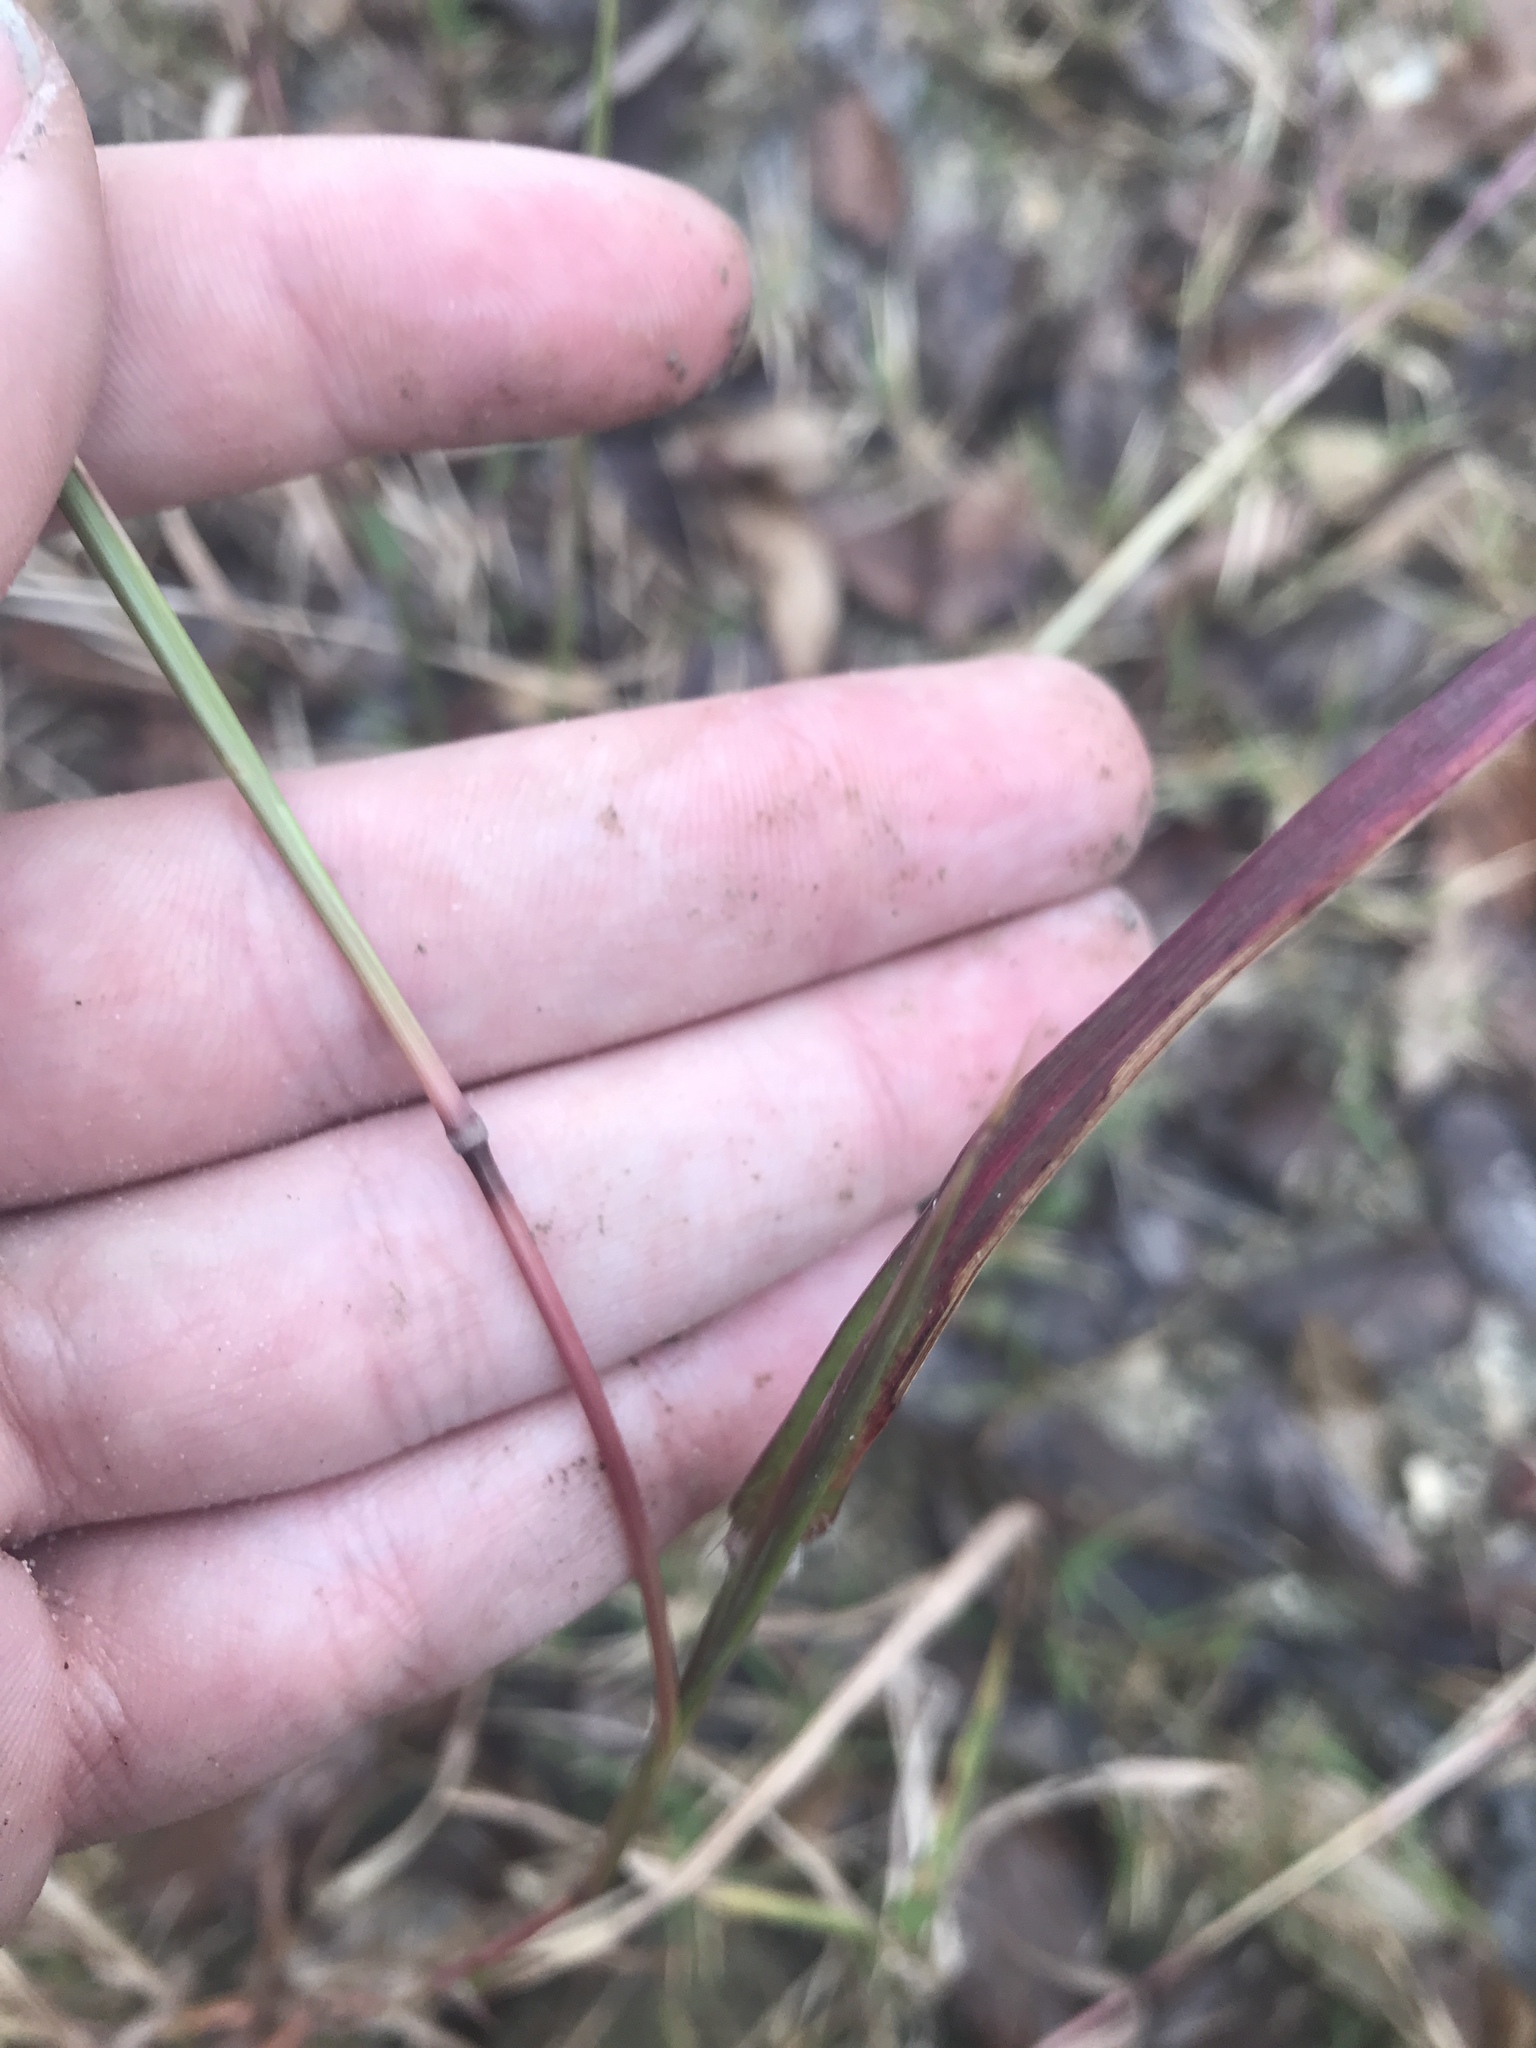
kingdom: Plantae
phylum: Tracheophyta
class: Liliopsida
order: Poales
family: Poaceae
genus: Dichanthium
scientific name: Dichanthium aristatum
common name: Angleton bluestem
